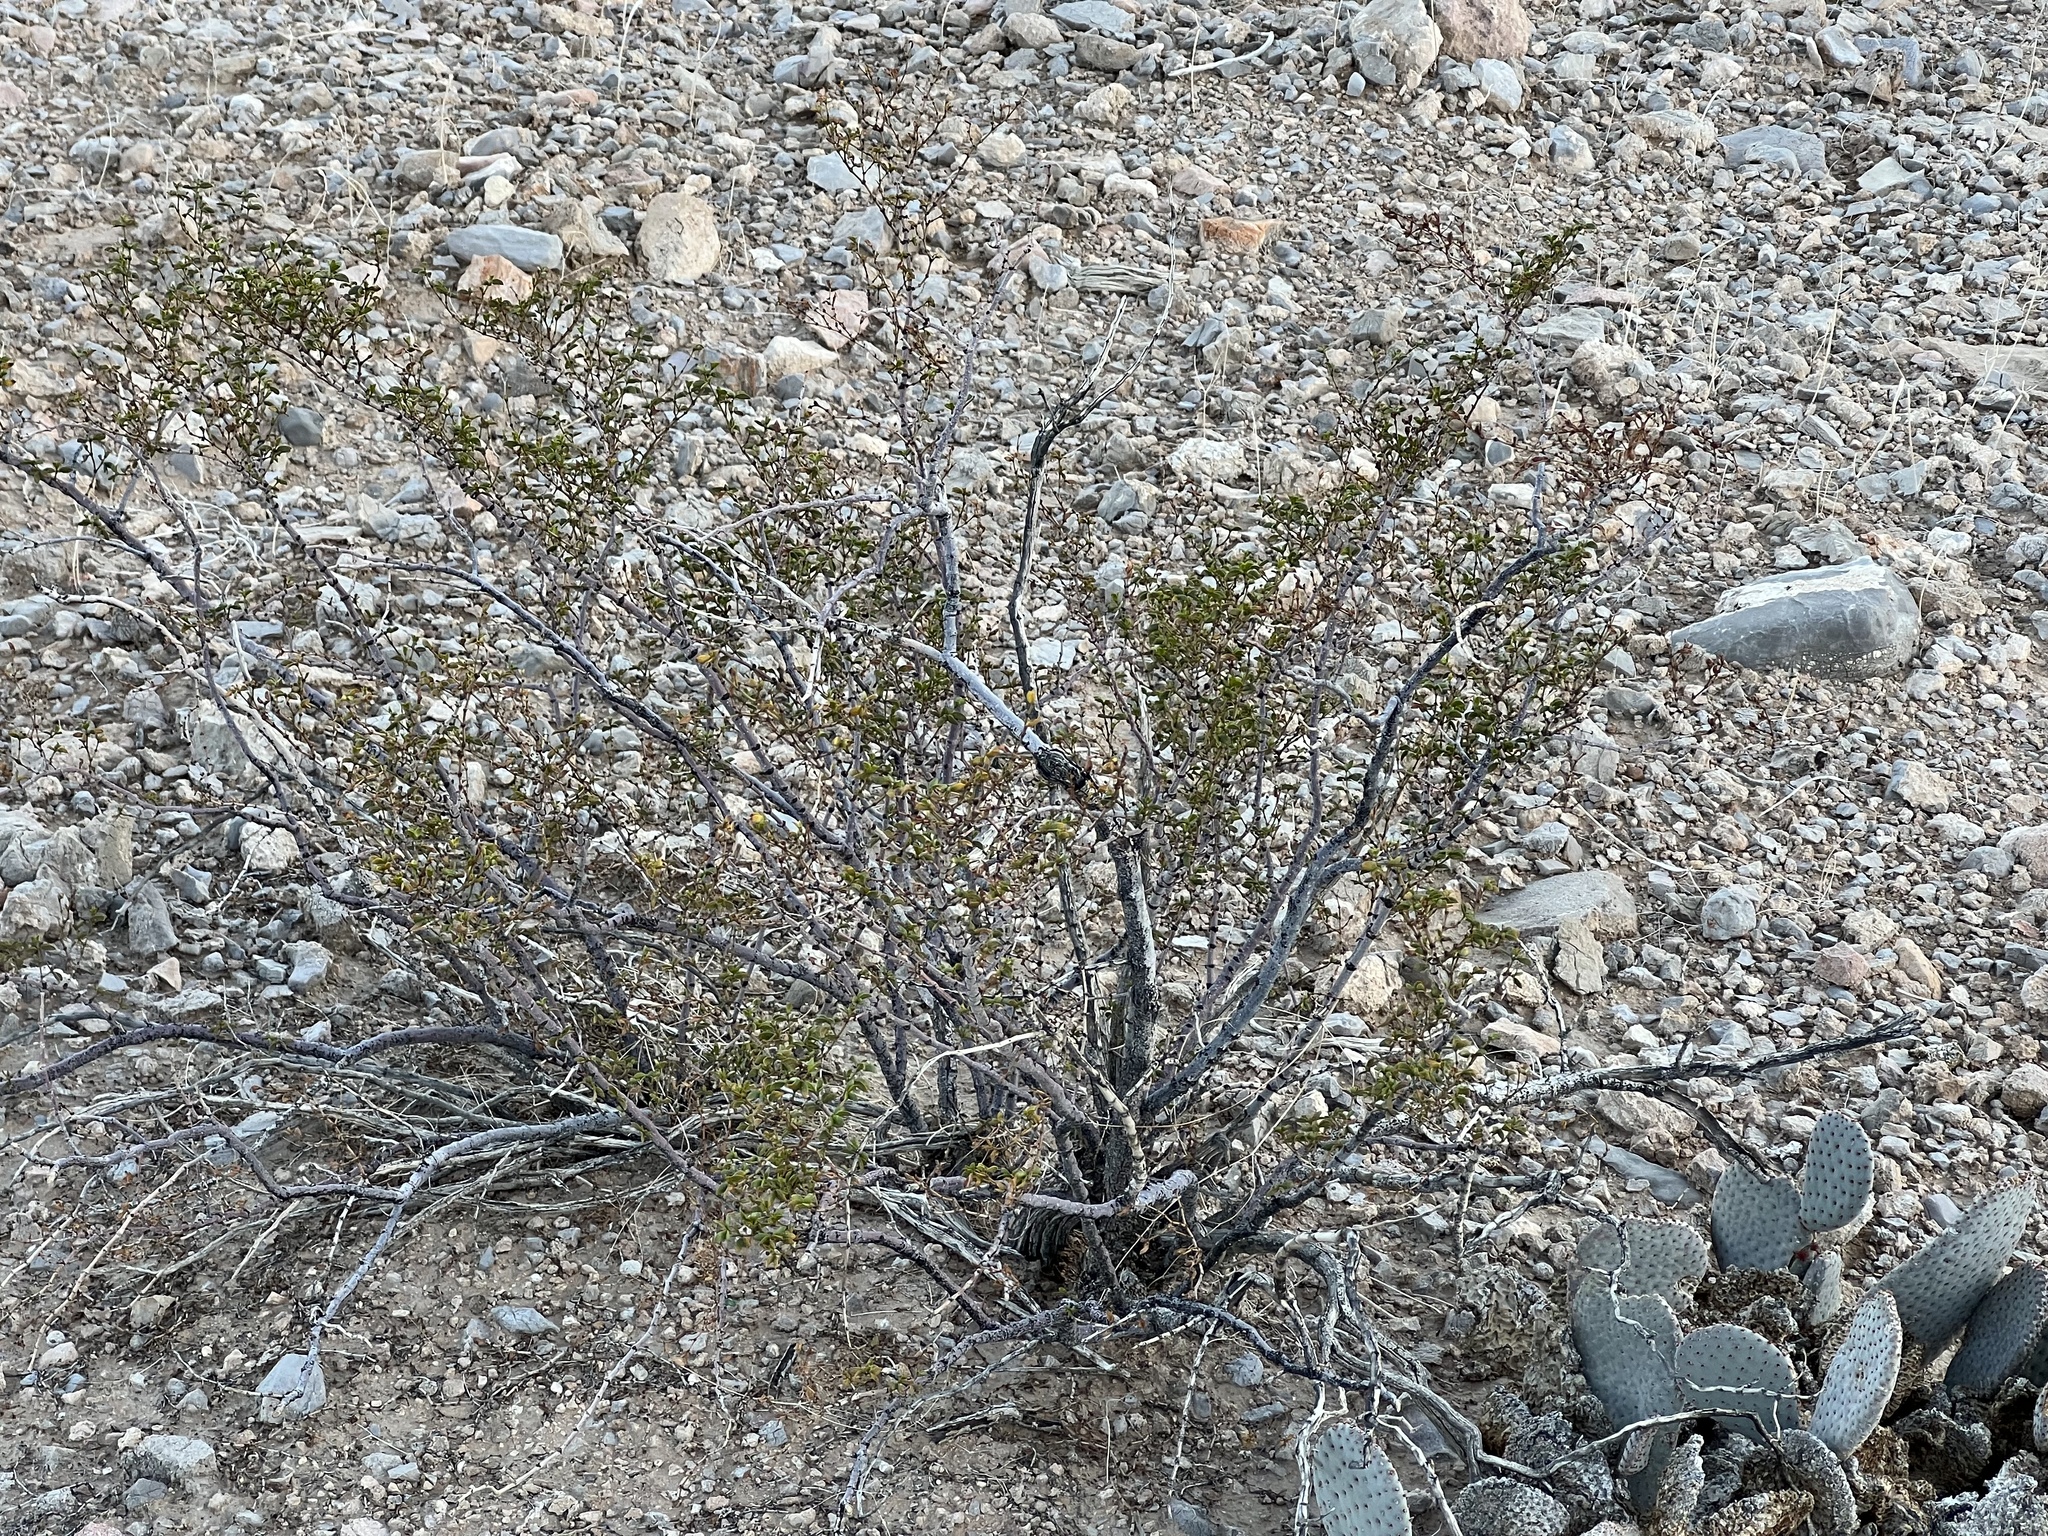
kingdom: Plantae
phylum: Tracheophyta
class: Magnoliopsida
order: Zygophyllales
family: Zygophyllaceae
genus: Larrea
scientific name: Larrea tridentata
